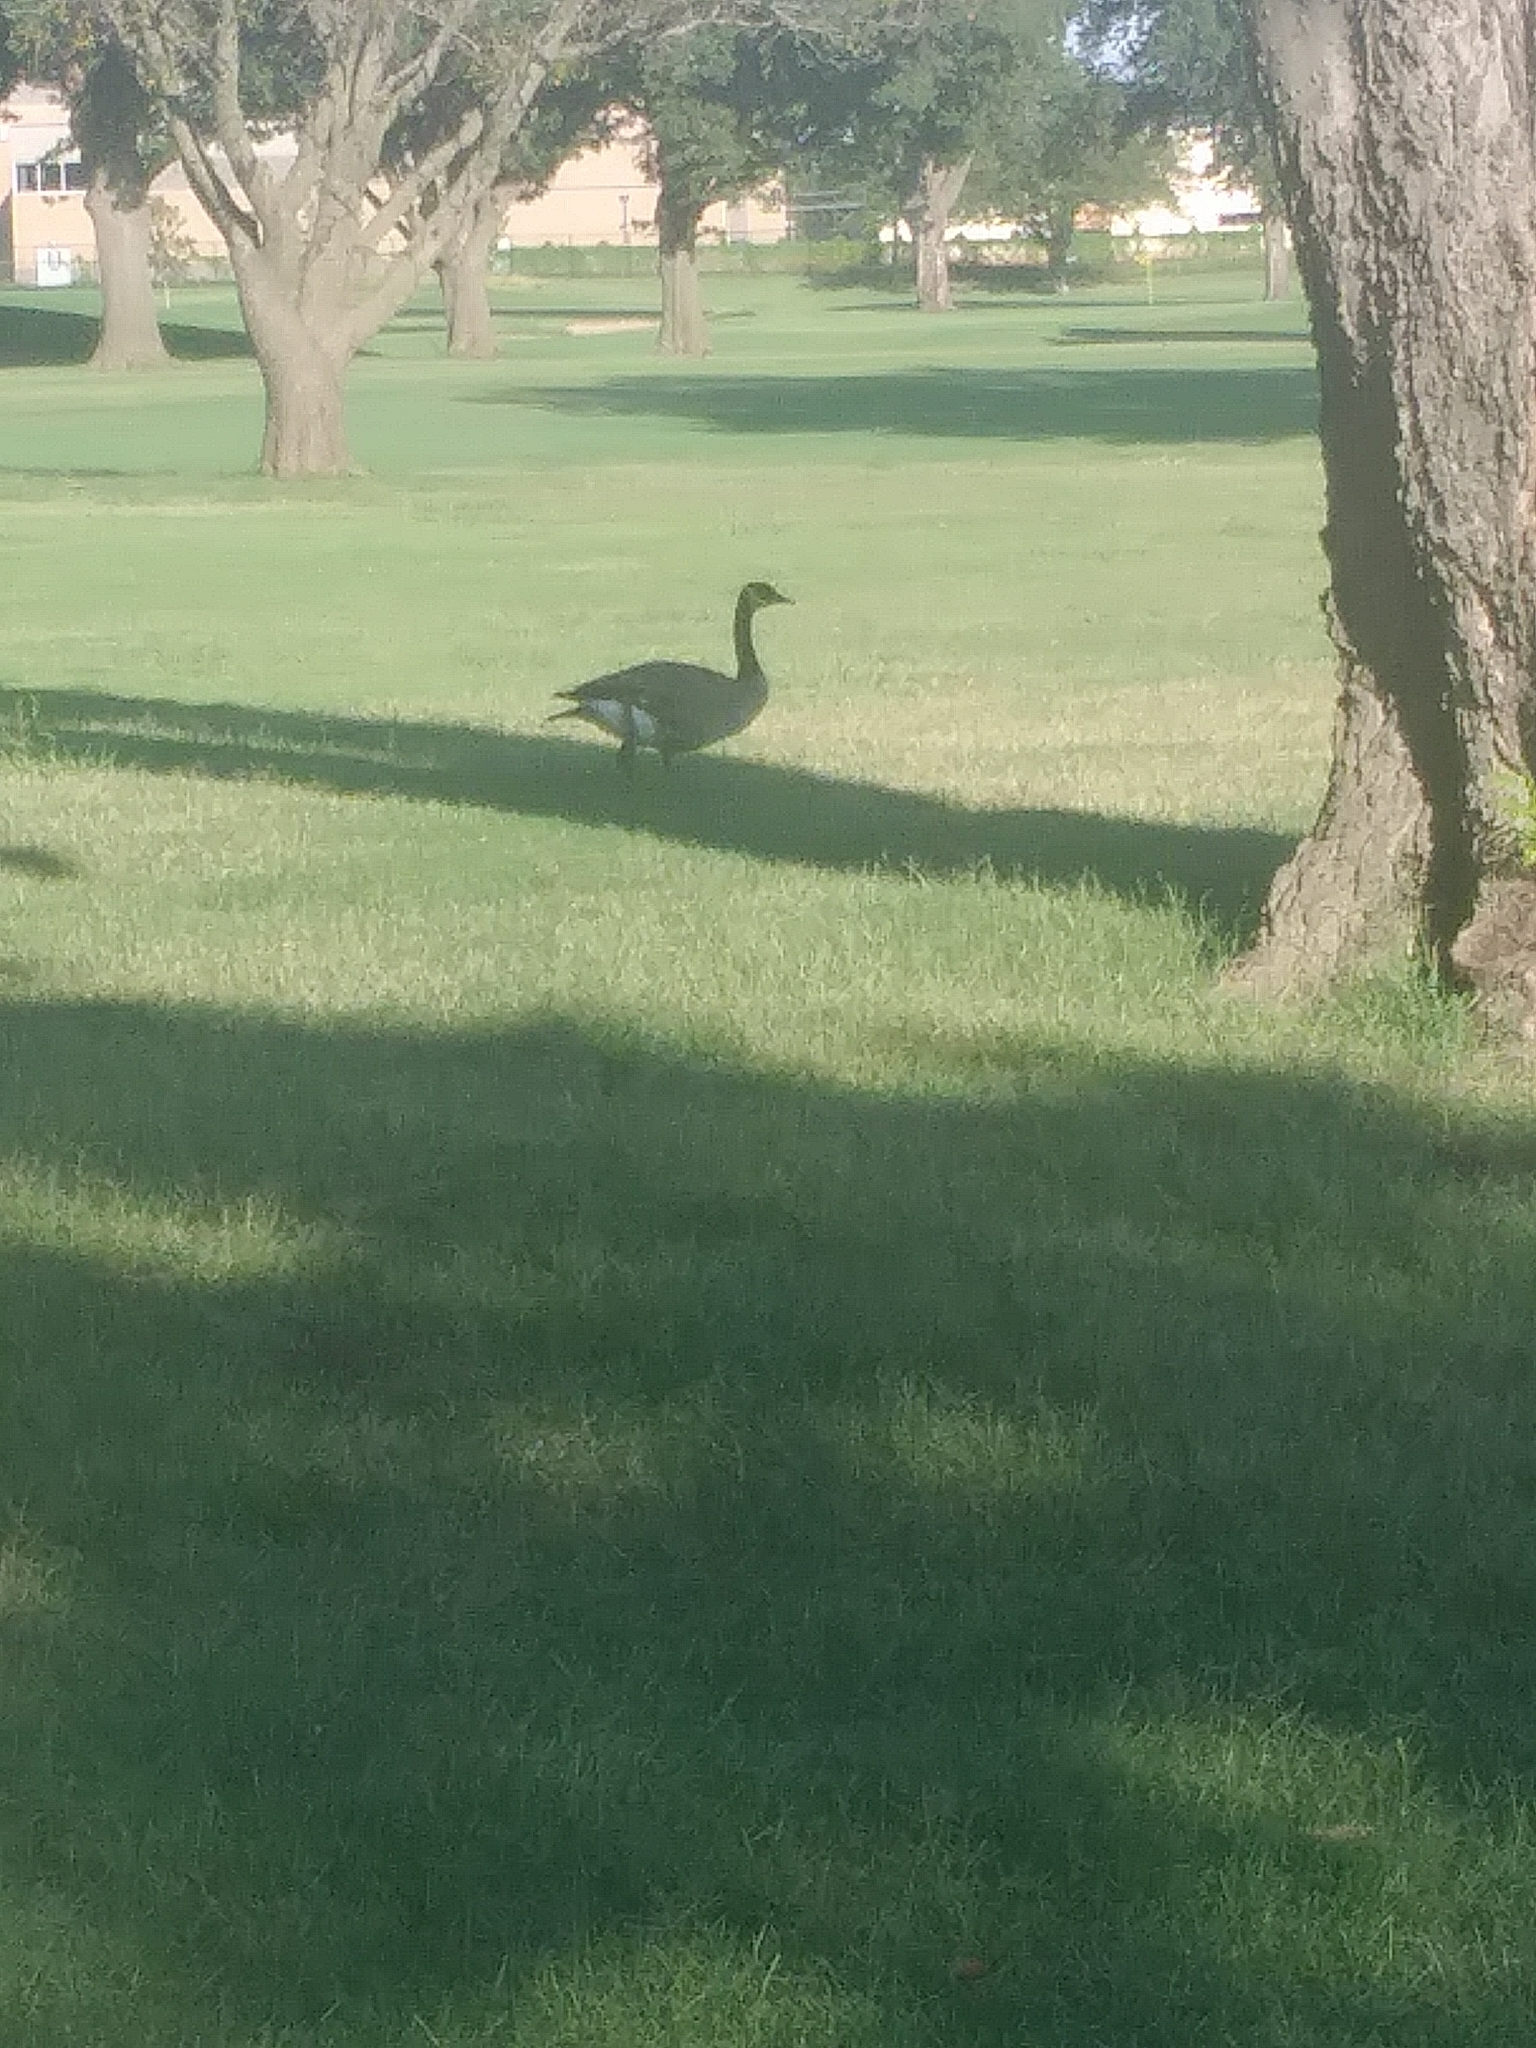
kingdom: Animalia
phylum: Chordata
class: Aves
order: Anseriformes
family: Anatidae
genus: Branta
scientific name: Branta canadensis
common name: Canada goose
